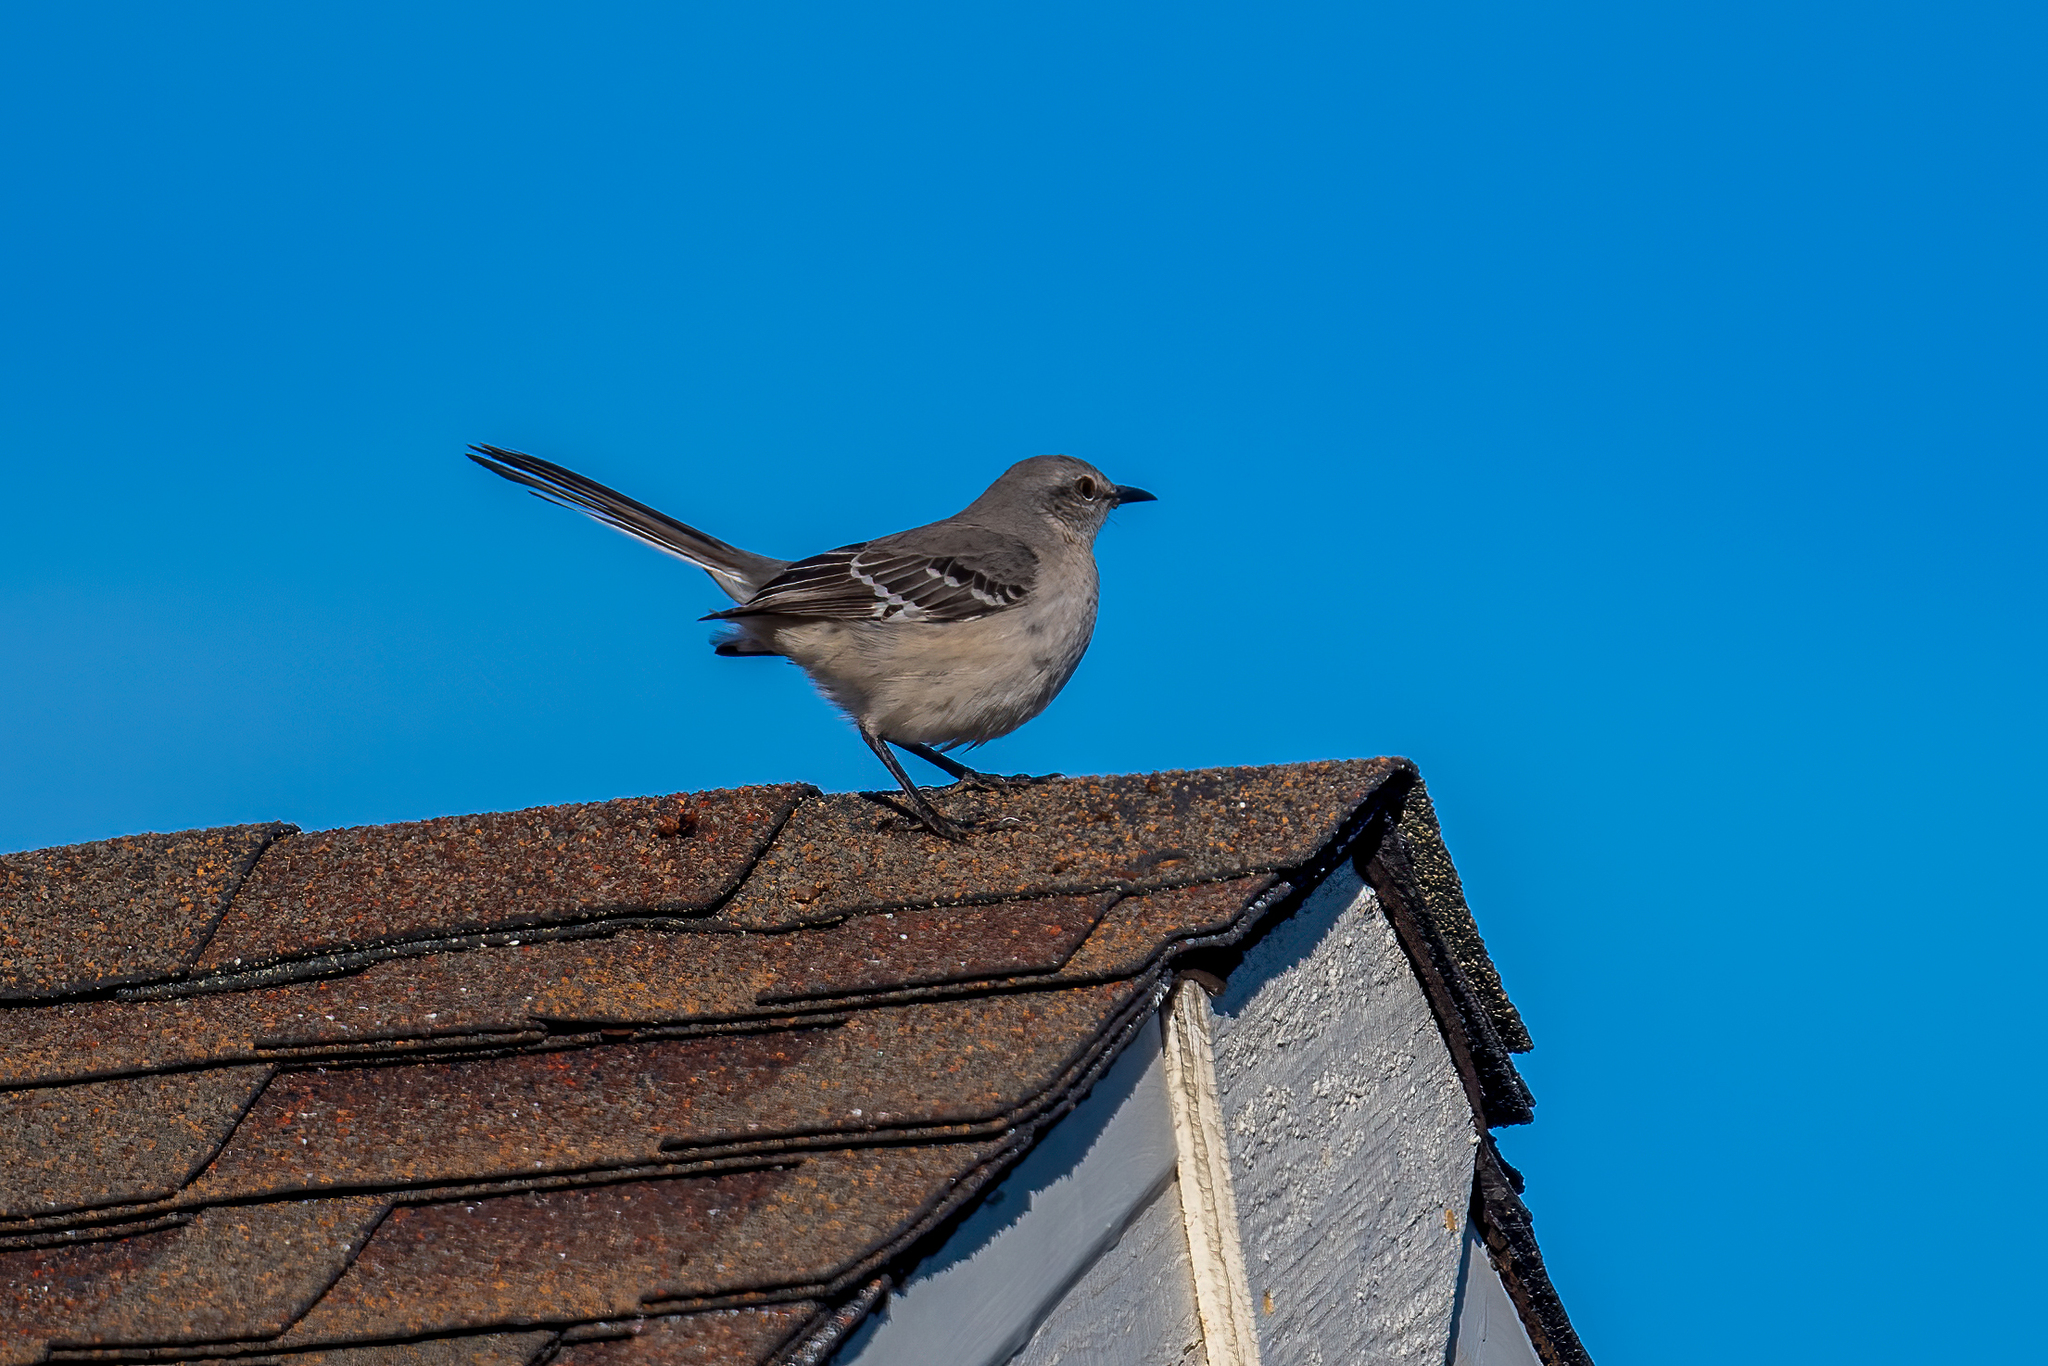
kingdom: Animalia
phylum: Chordata
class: Aves
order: Passeriformes
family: Mimidae
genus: Mimus
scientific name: Mimus polyglottos
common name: Northern mockingbird
